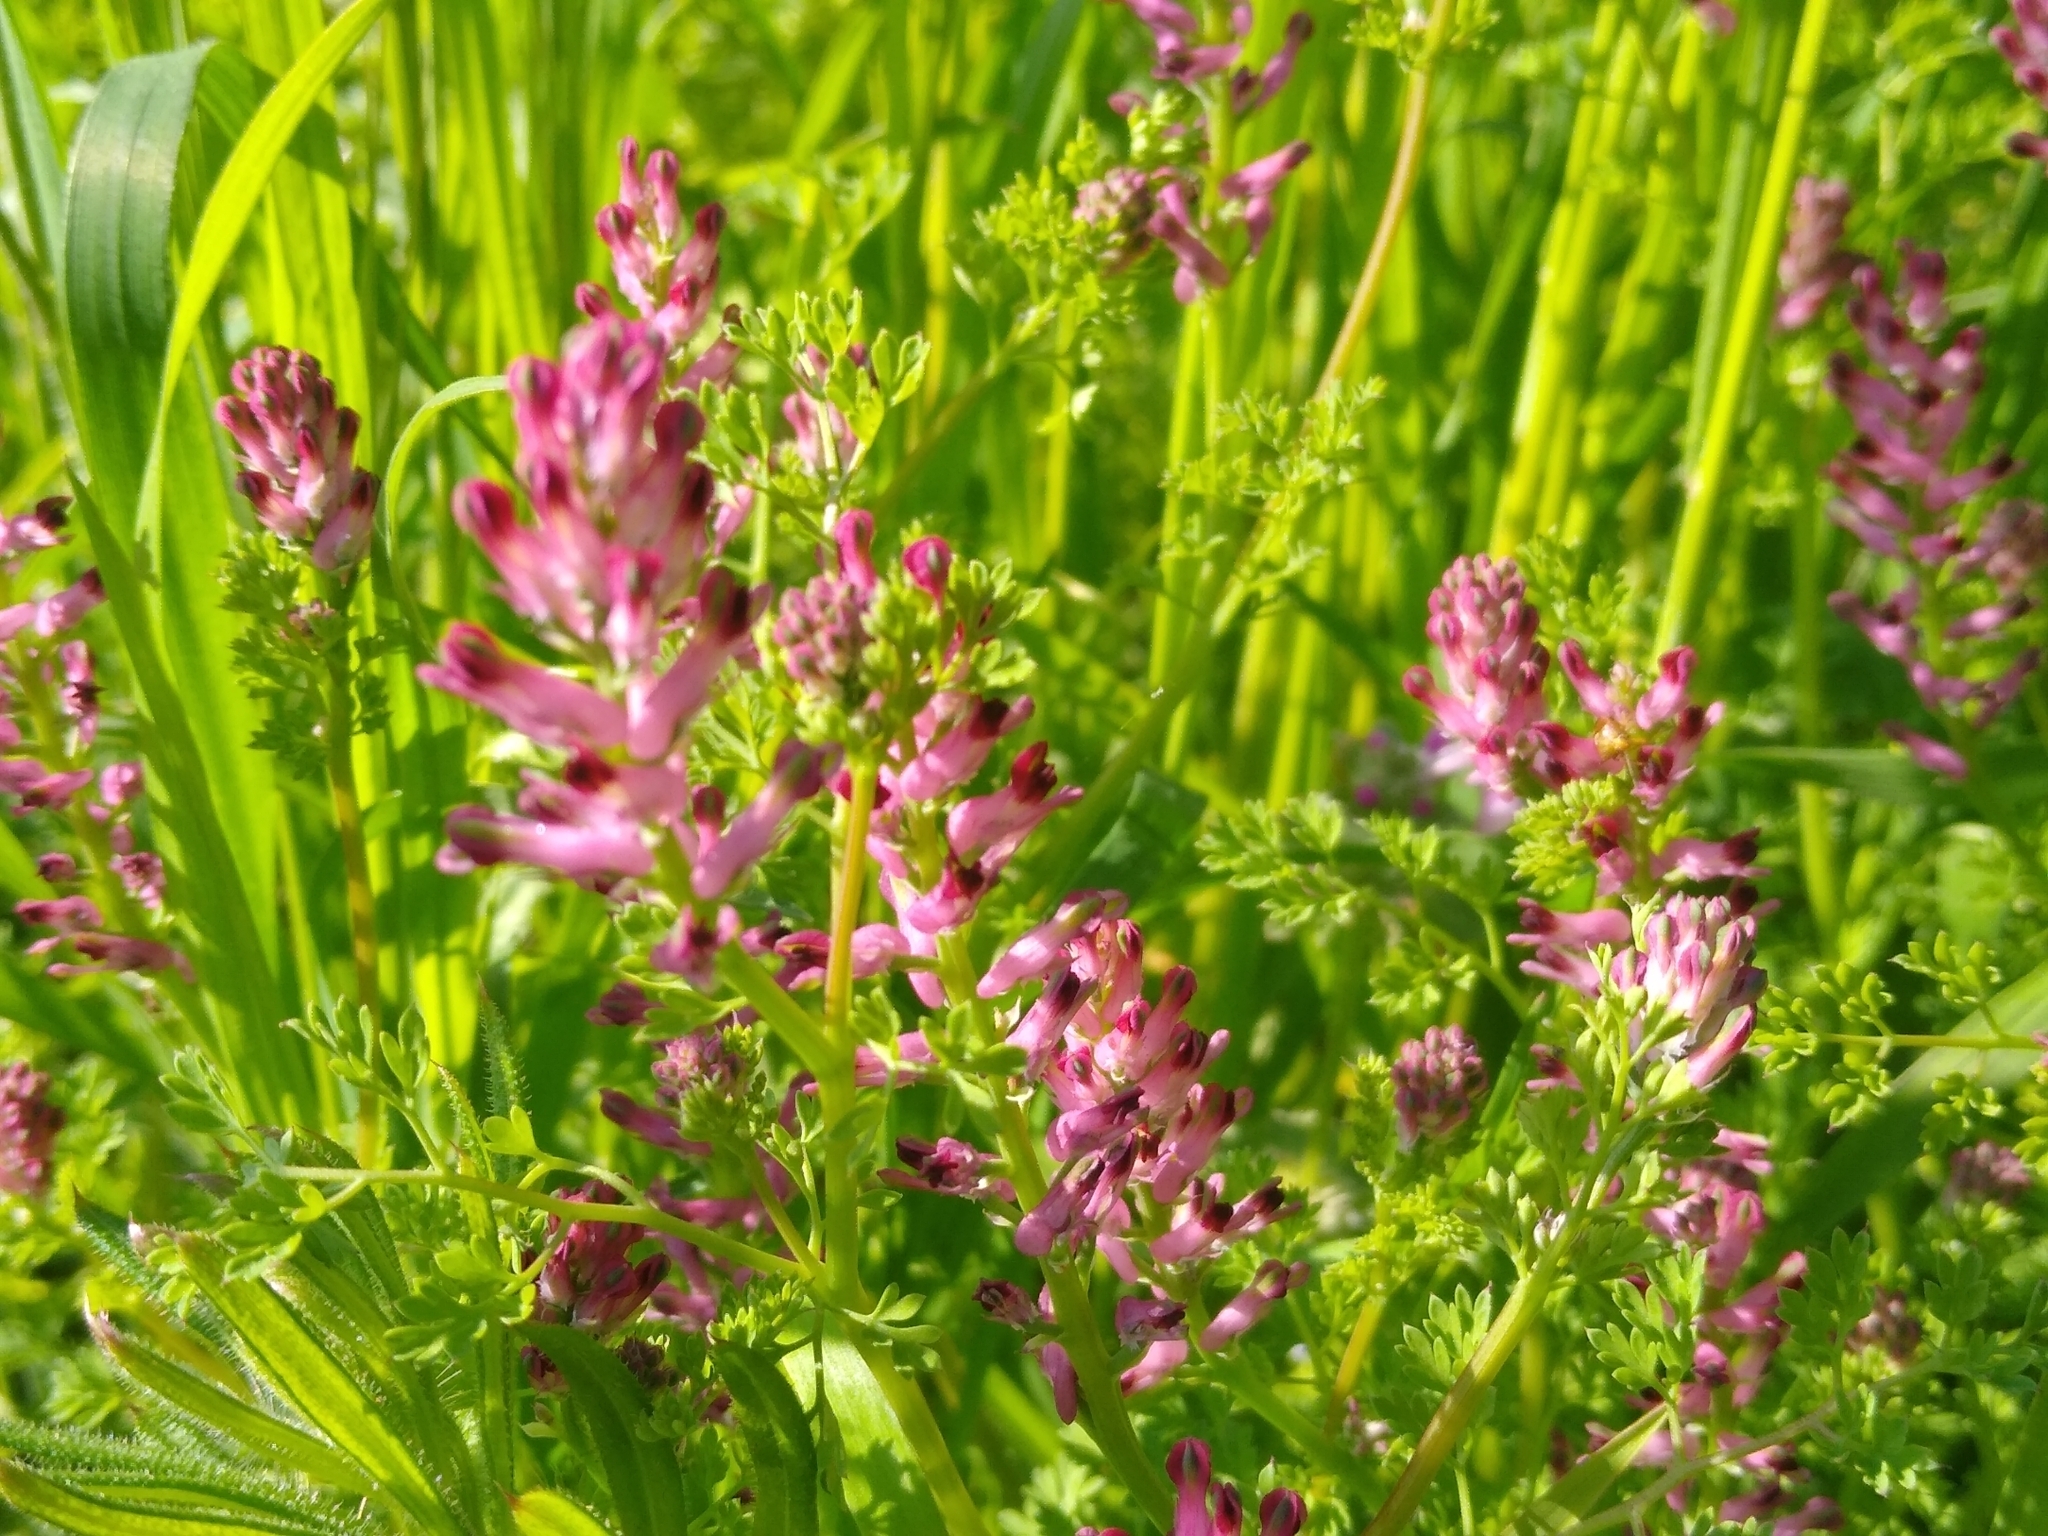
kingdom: Plantae
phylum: Tracheophyta
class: Magnoliopsida
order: Ranunculales
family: Papaveraceae
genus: Fumaria
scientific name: Fumaria officinalis
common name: Common fumitory
